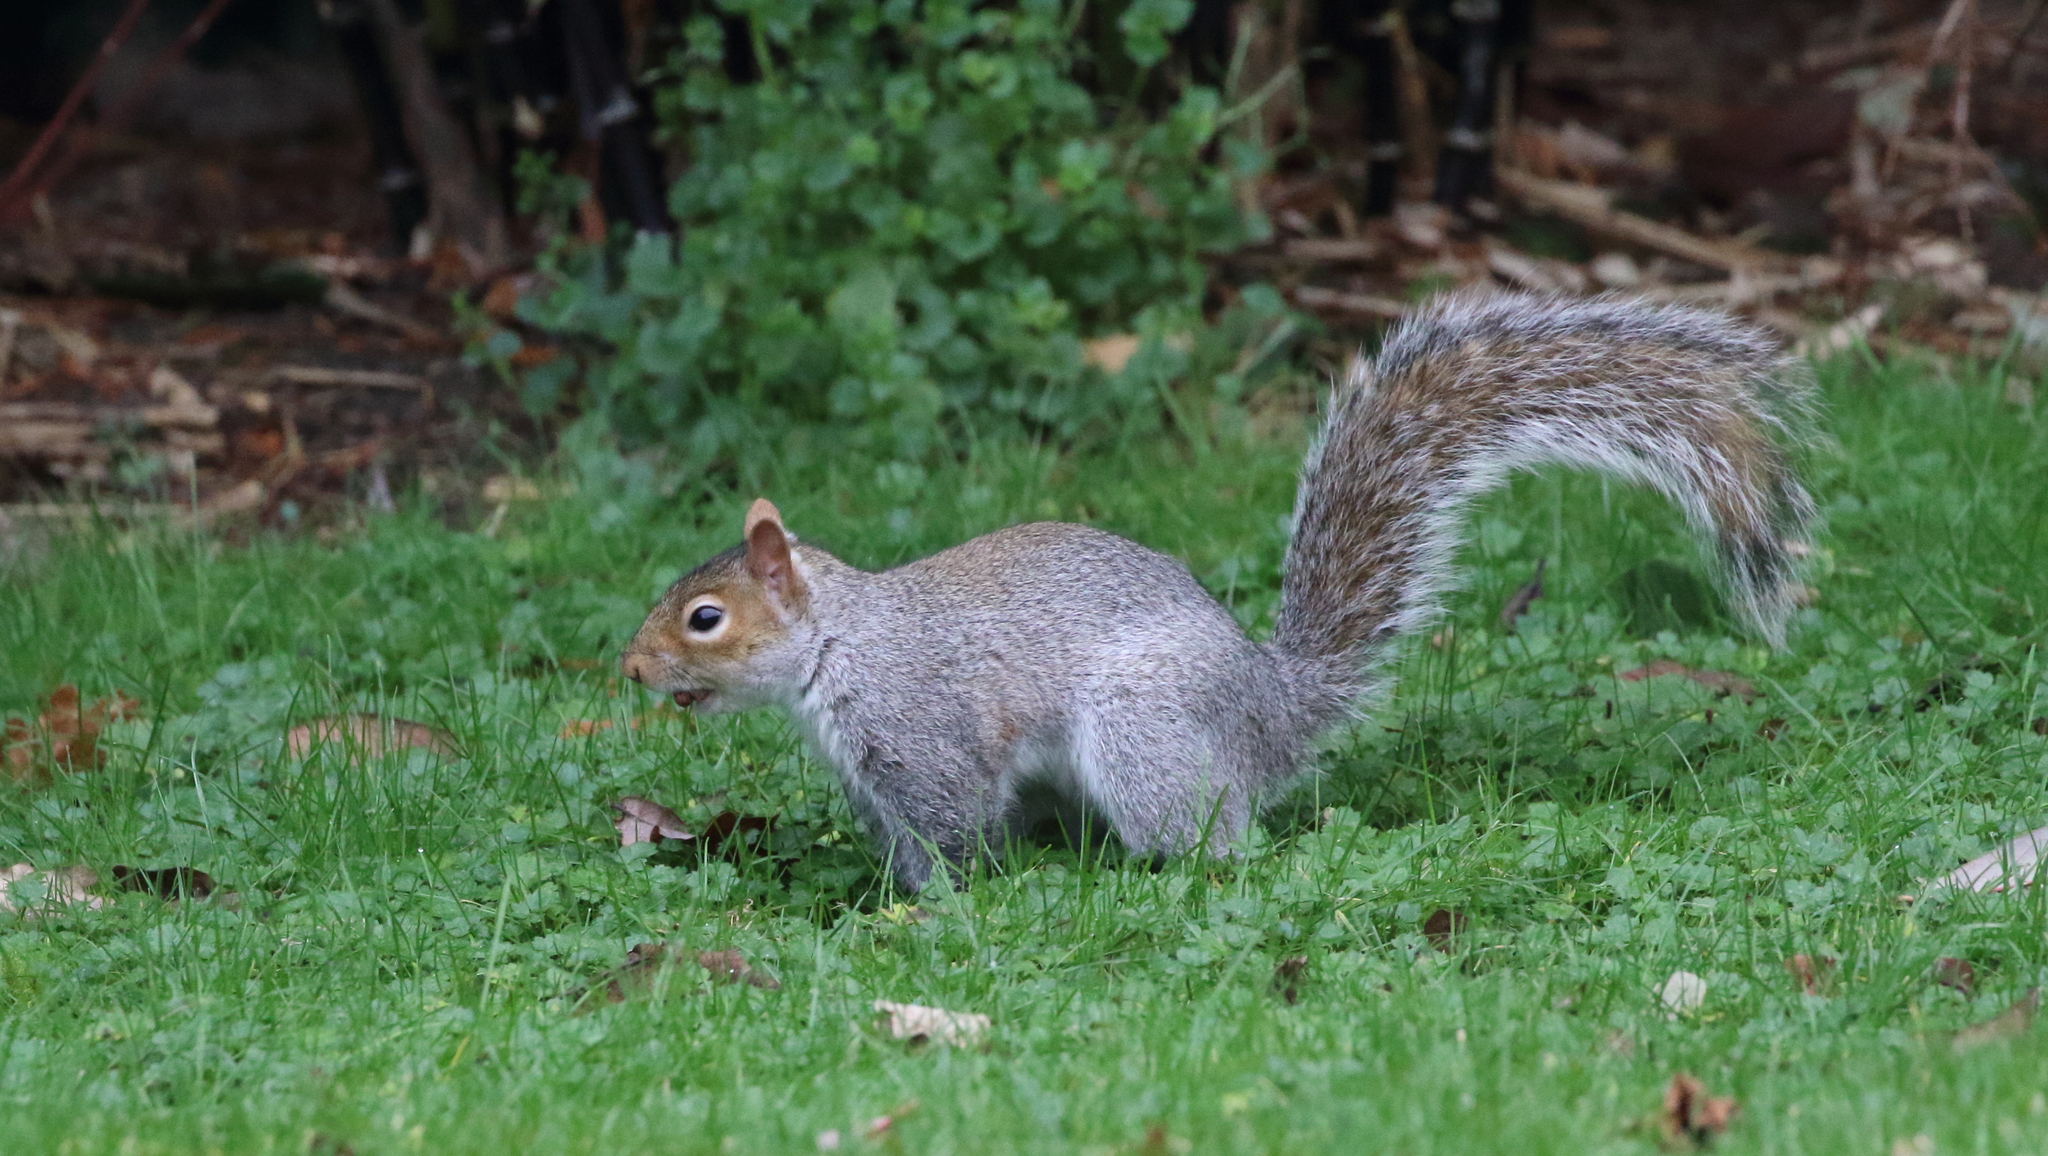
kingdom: Animalia
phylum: Chordata
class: Mammalia
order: Rodentia
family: Sciuridae
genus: Sciurus
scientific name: Sciurus carolinensis
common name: Eastern gray squirrel
